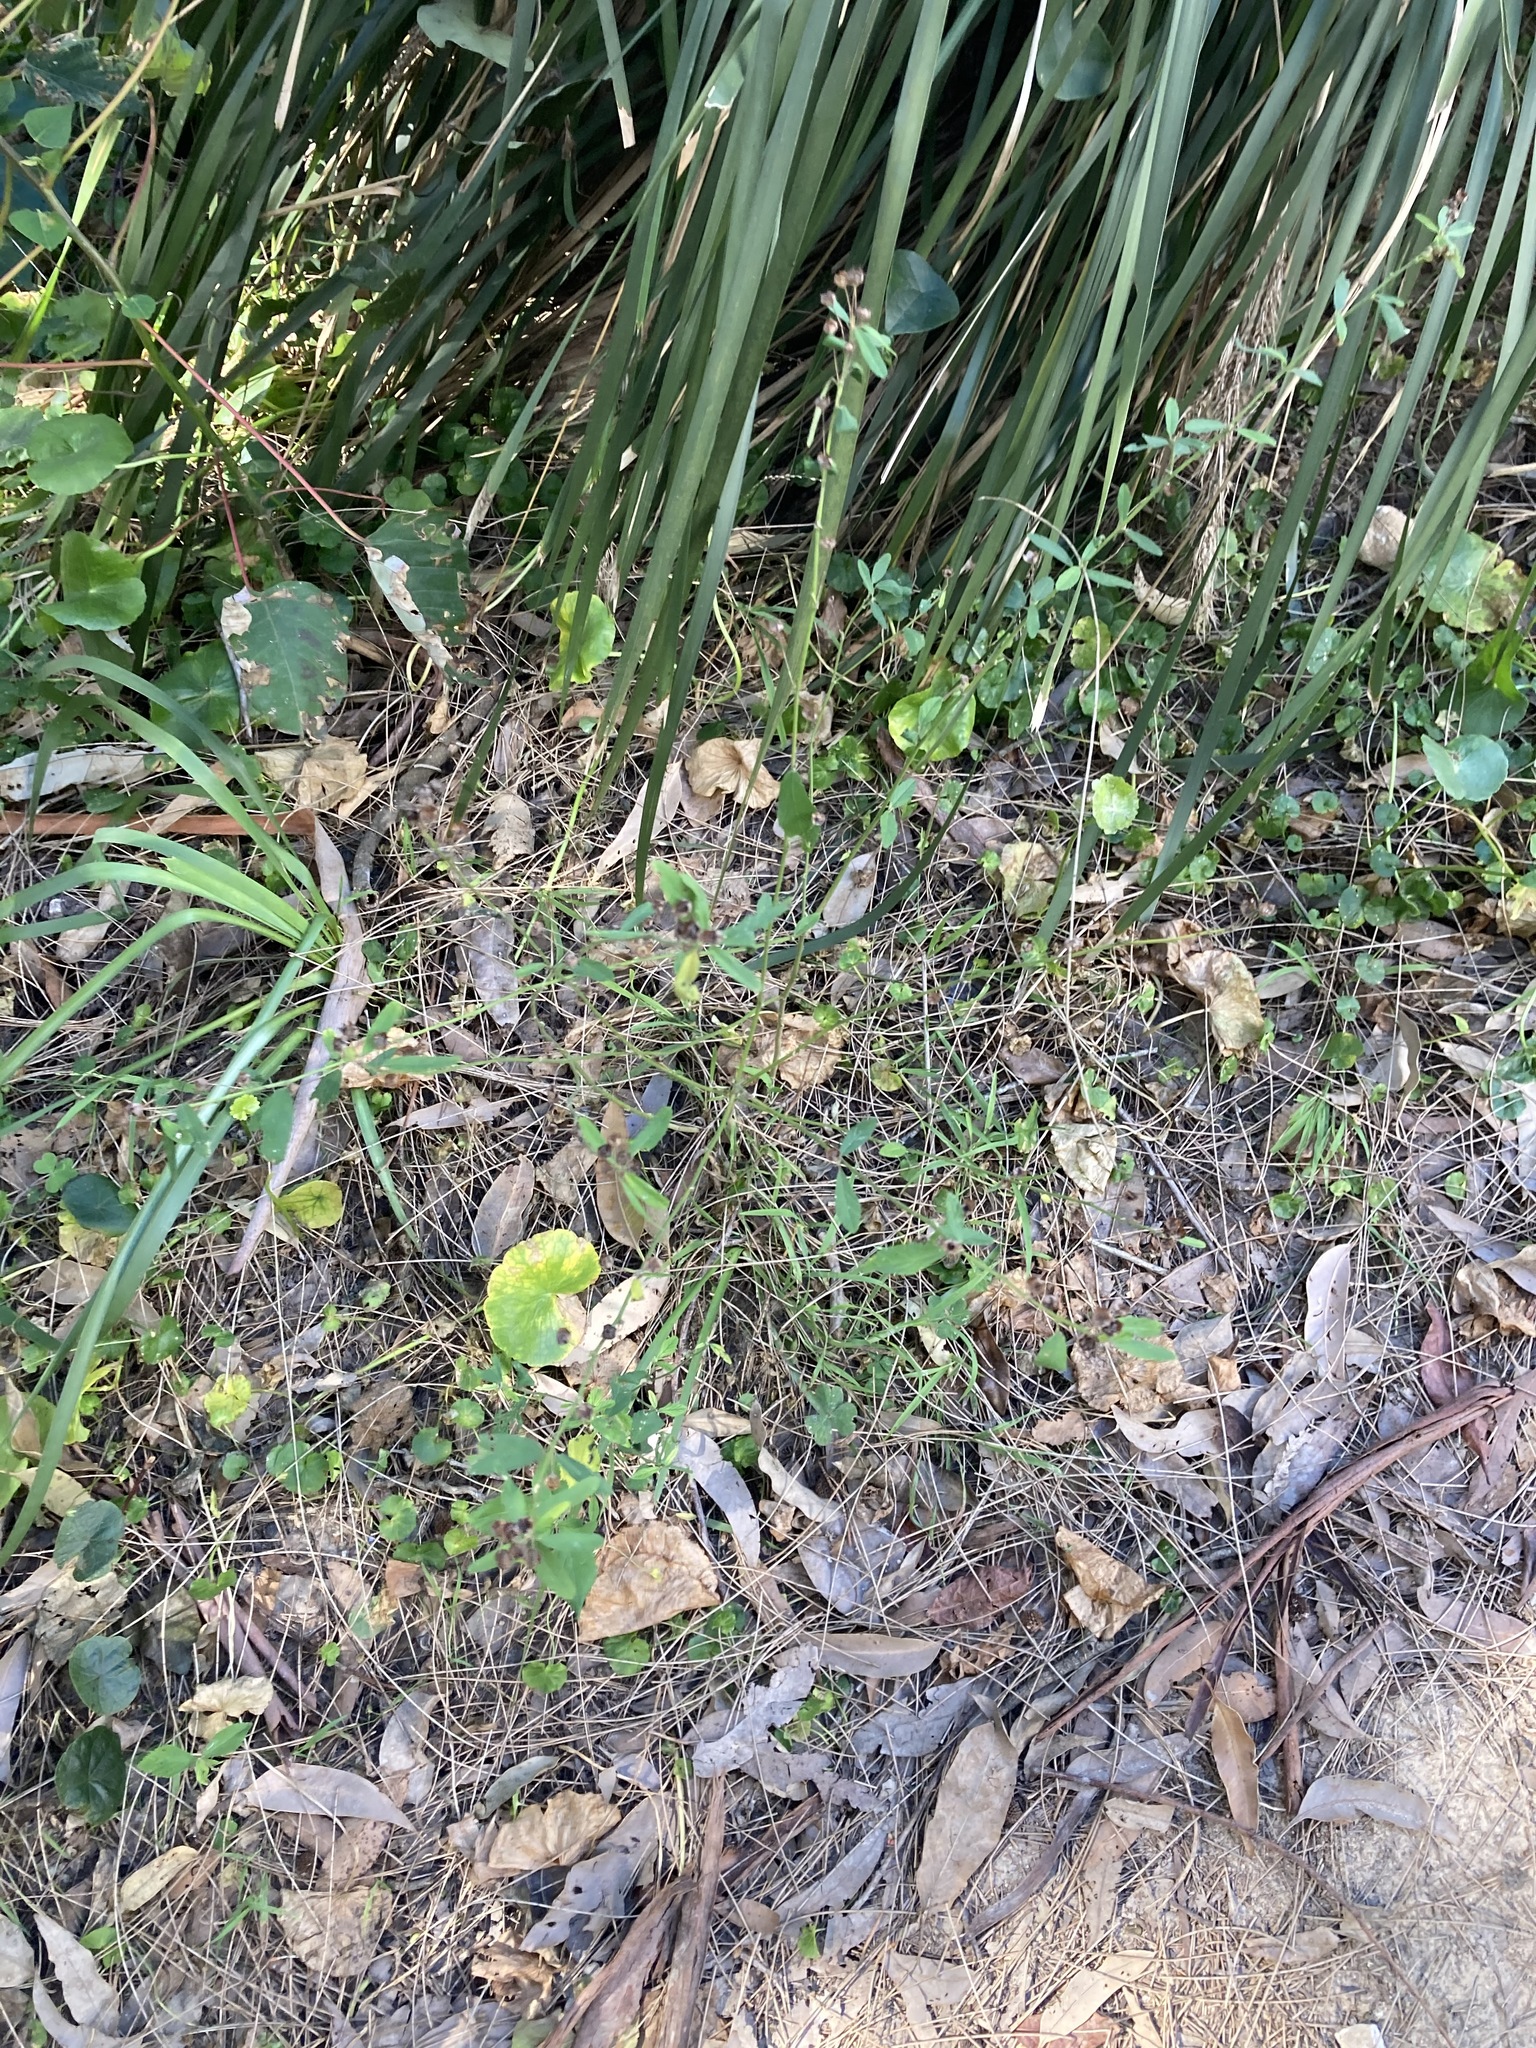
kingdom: Plantae
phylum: Tracheophyta
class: Magnoliopsida
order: Malvales
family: Malvaceae
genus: Sida
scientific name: Sida rhombifolia
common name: Queensland-hemp
